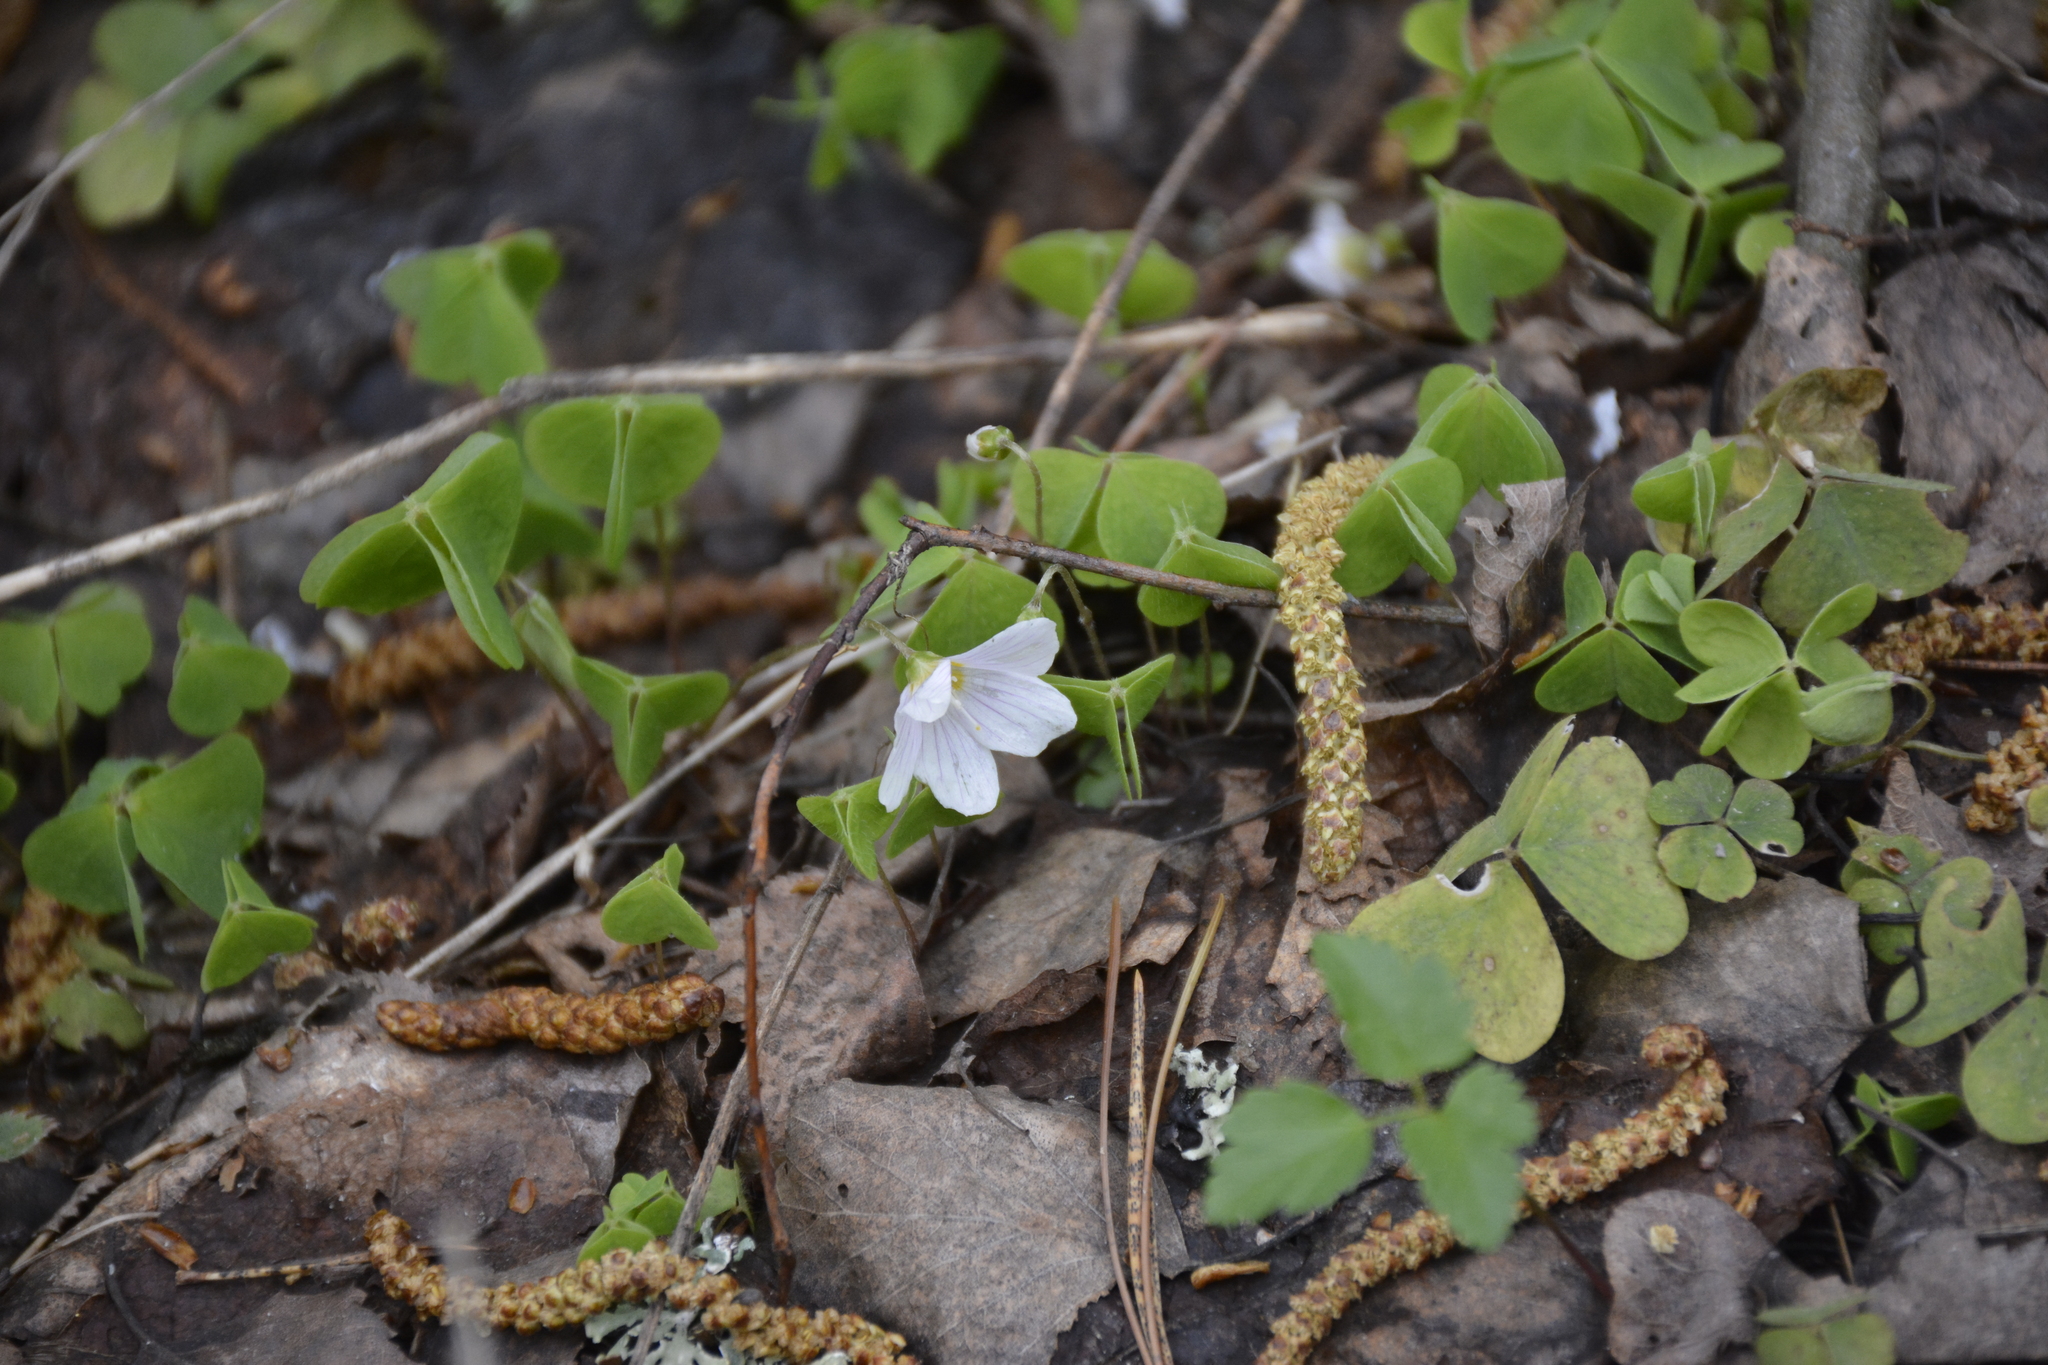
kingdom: Plantae
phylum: Tracheophyta
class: Magnoliopsida
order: Oxalidales
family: Oxalidaceae
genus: Oxalis
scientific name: Oxalis acetosella
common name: Wood-sorrel
